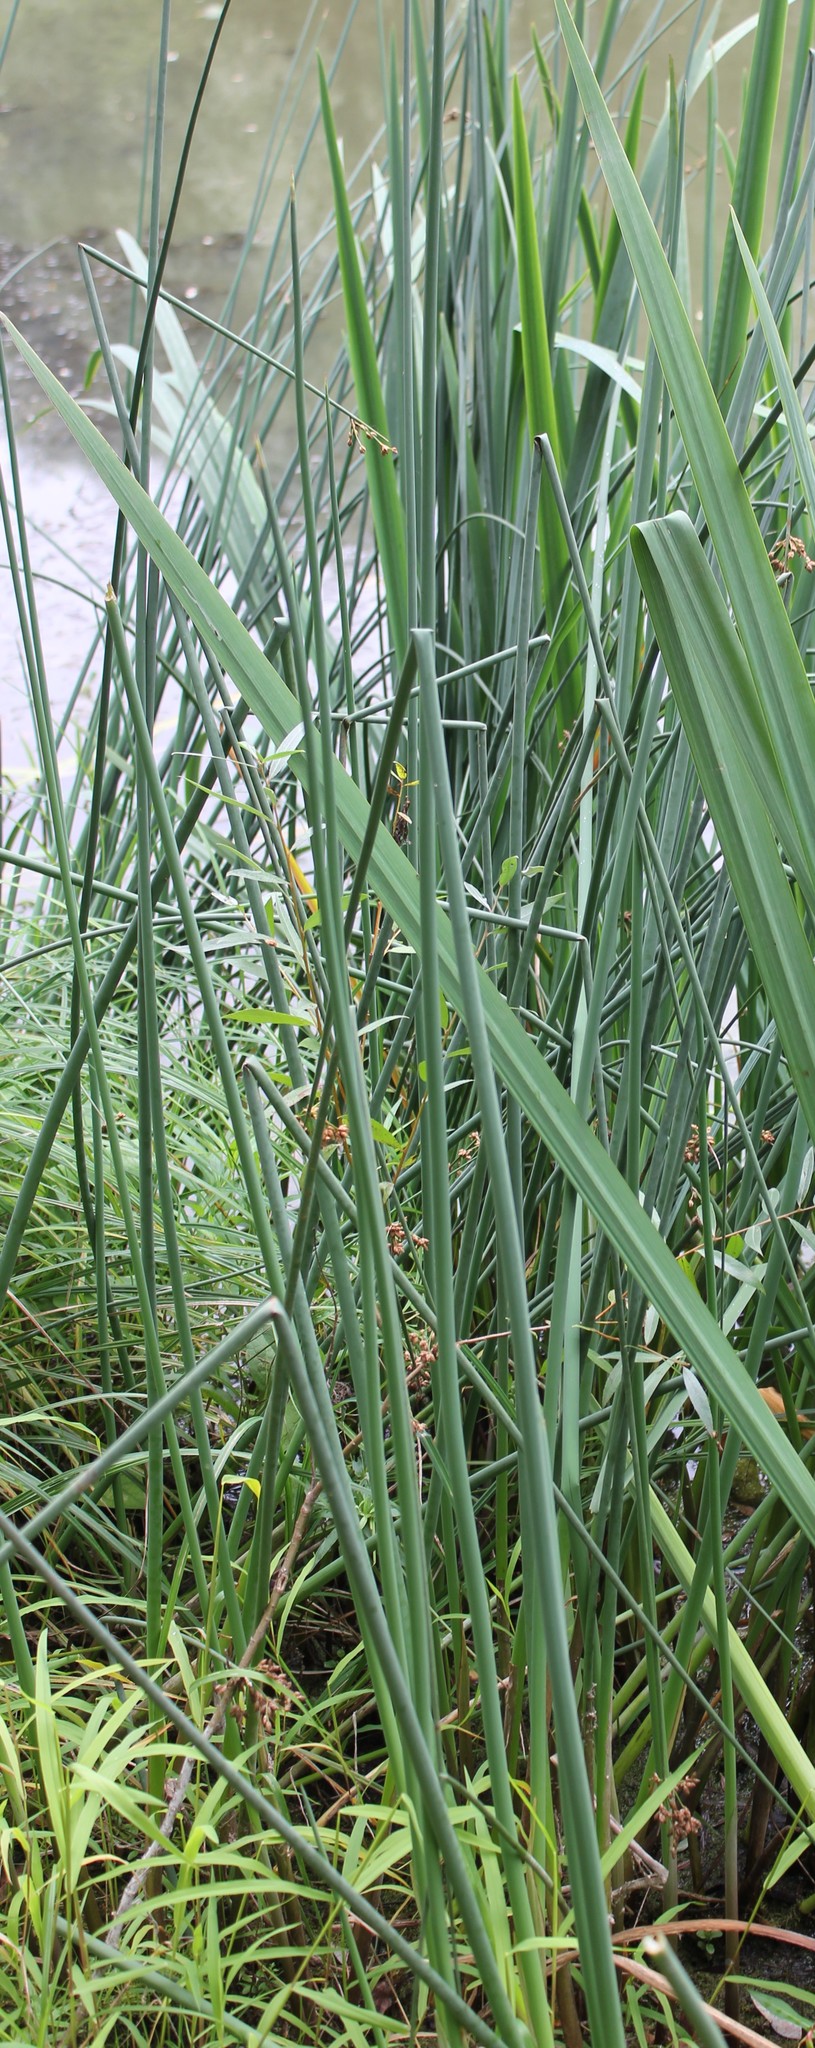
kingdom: Plantae
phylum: Tracheophyta
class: Liliopsida
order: Poales
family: Cyperaceae
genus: Schoenoplectus
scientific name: Schoenoplectus lacustris
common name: Common club-rush
